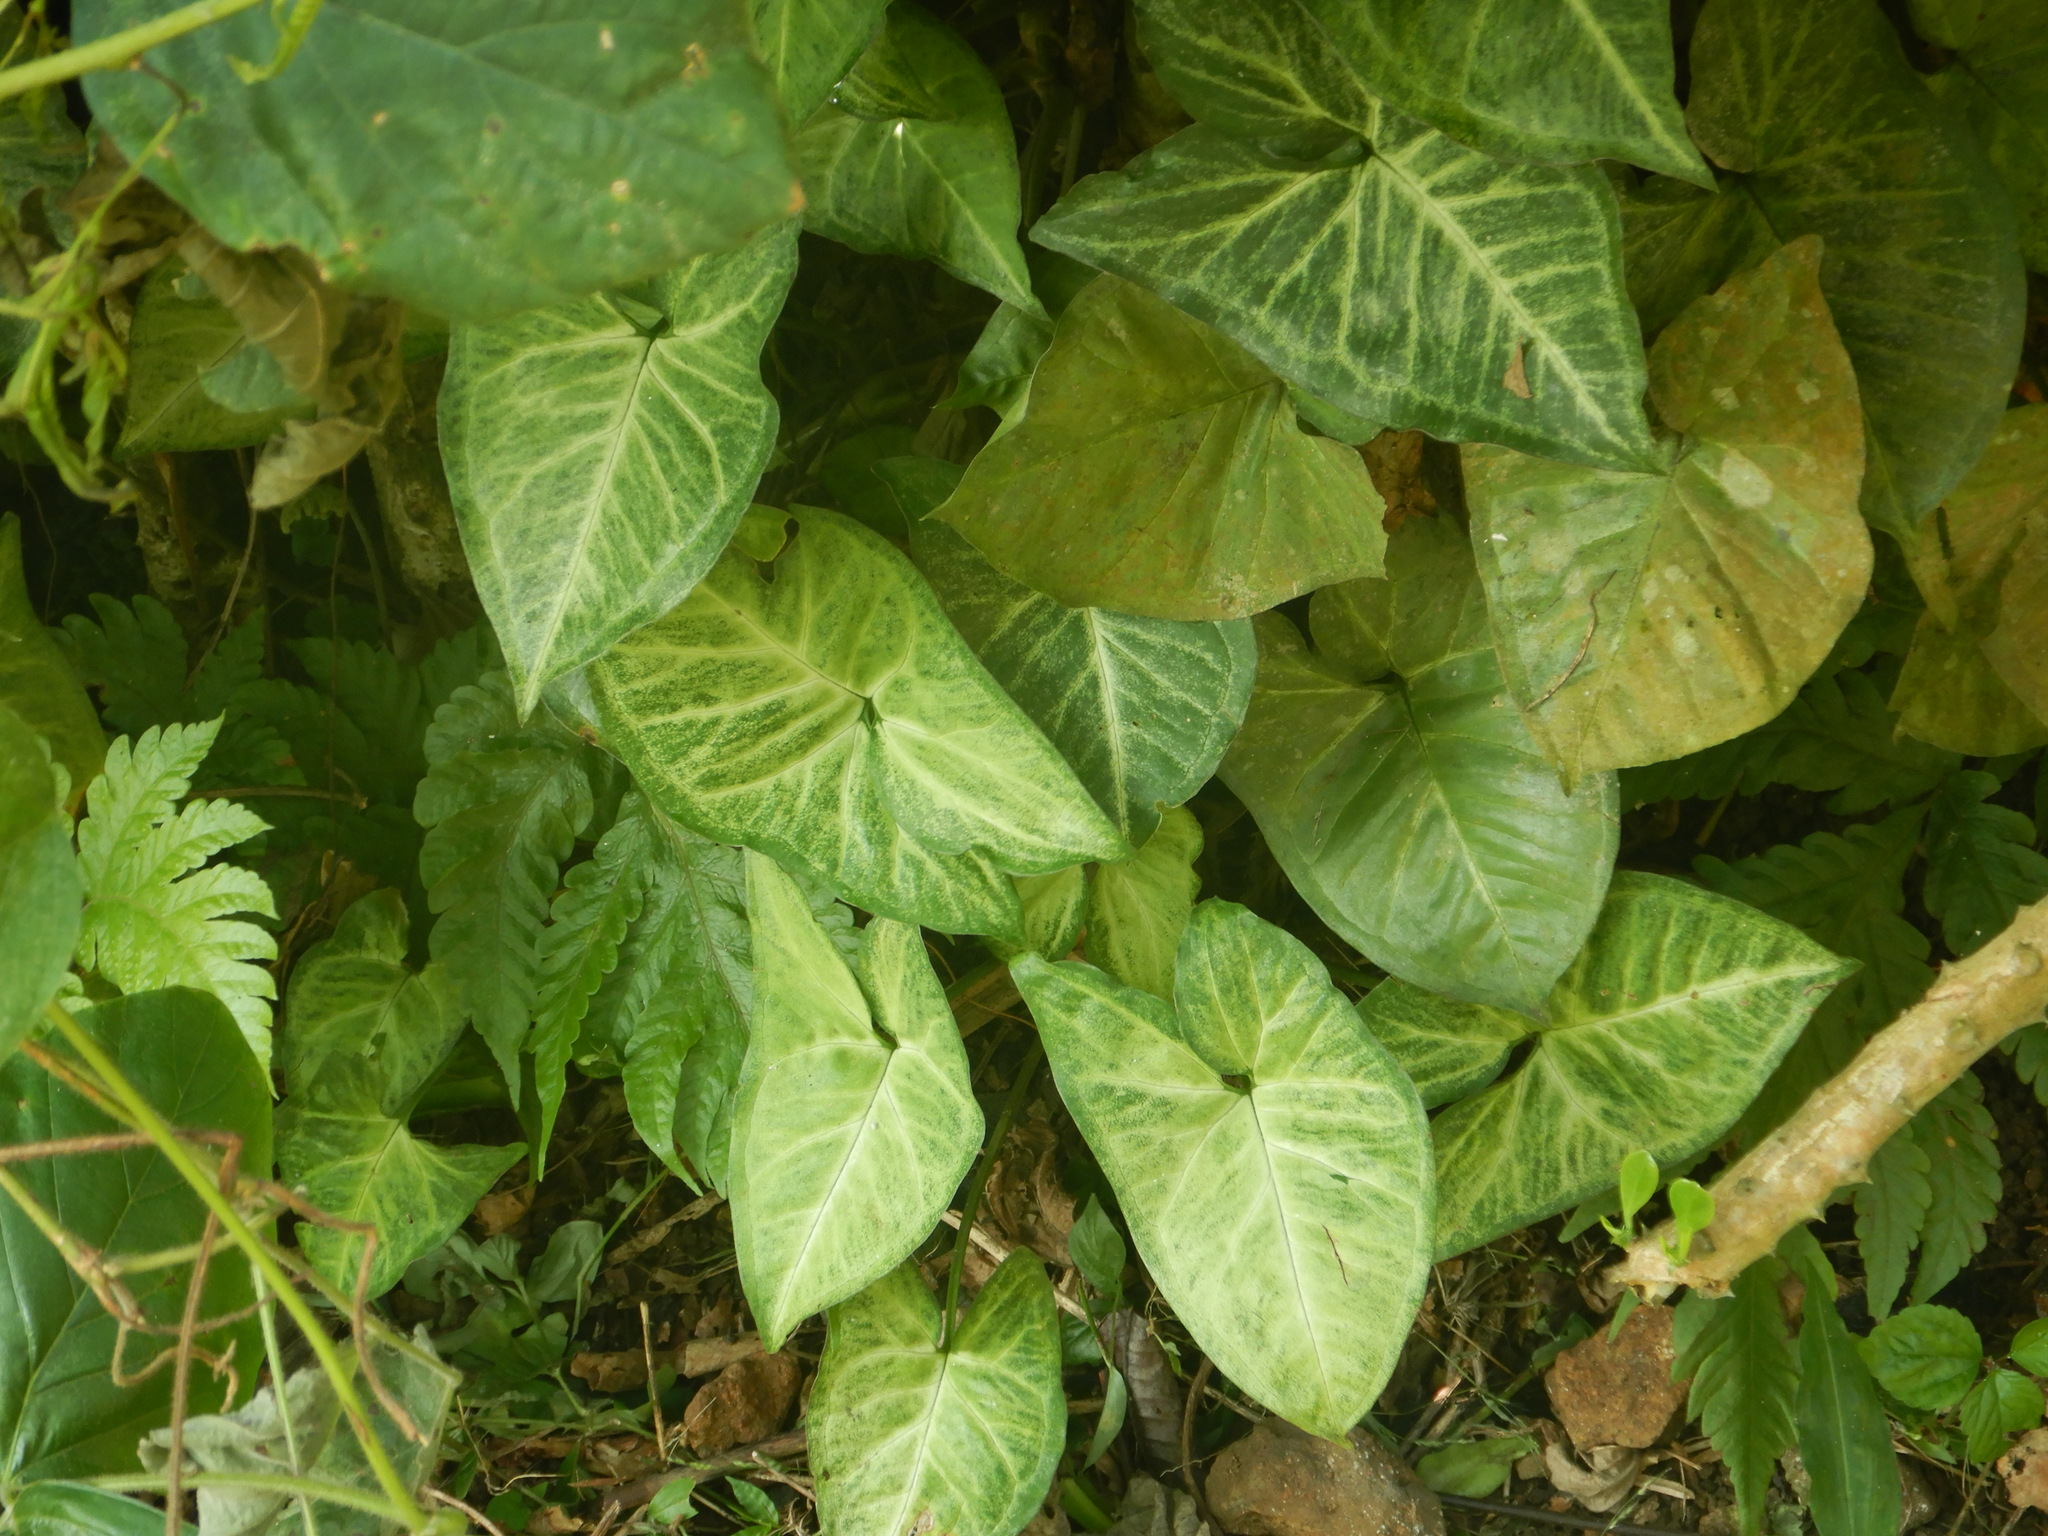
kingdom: Plantae
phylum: Tracheophyta
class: Liliopsida
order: Alismatales
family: Araceae
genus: Syngonium
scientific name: Syngonium podophyllum
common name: American evergreen
